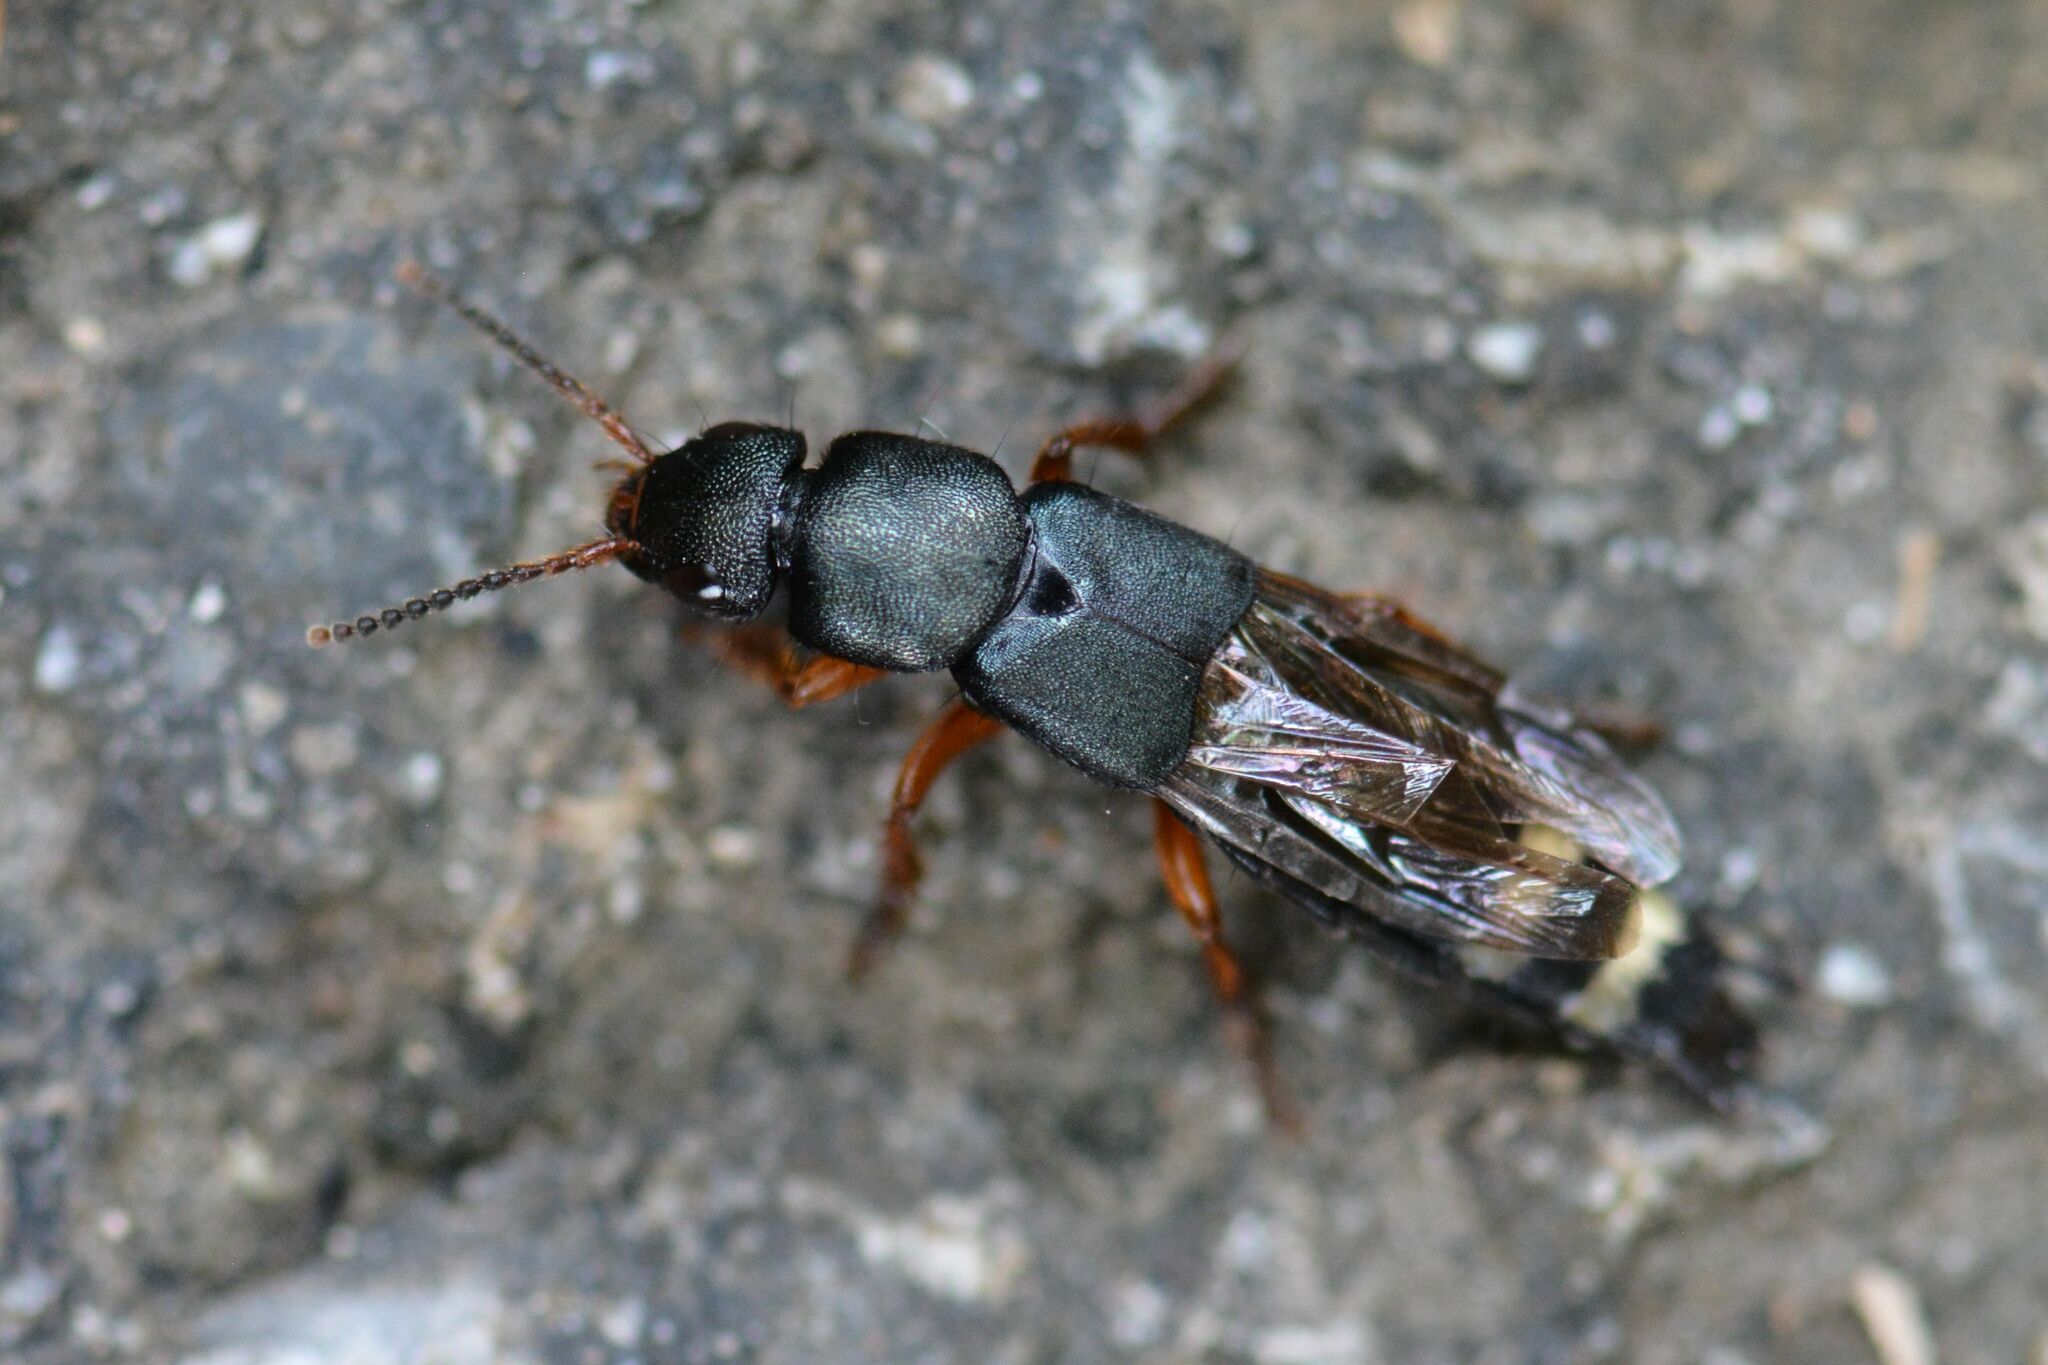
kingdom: Animalia
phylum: Arthropoda
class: Insecta
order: Coleoptera
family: Staphylinidae
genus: Platydracus
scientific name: Platydracus fulvipes
